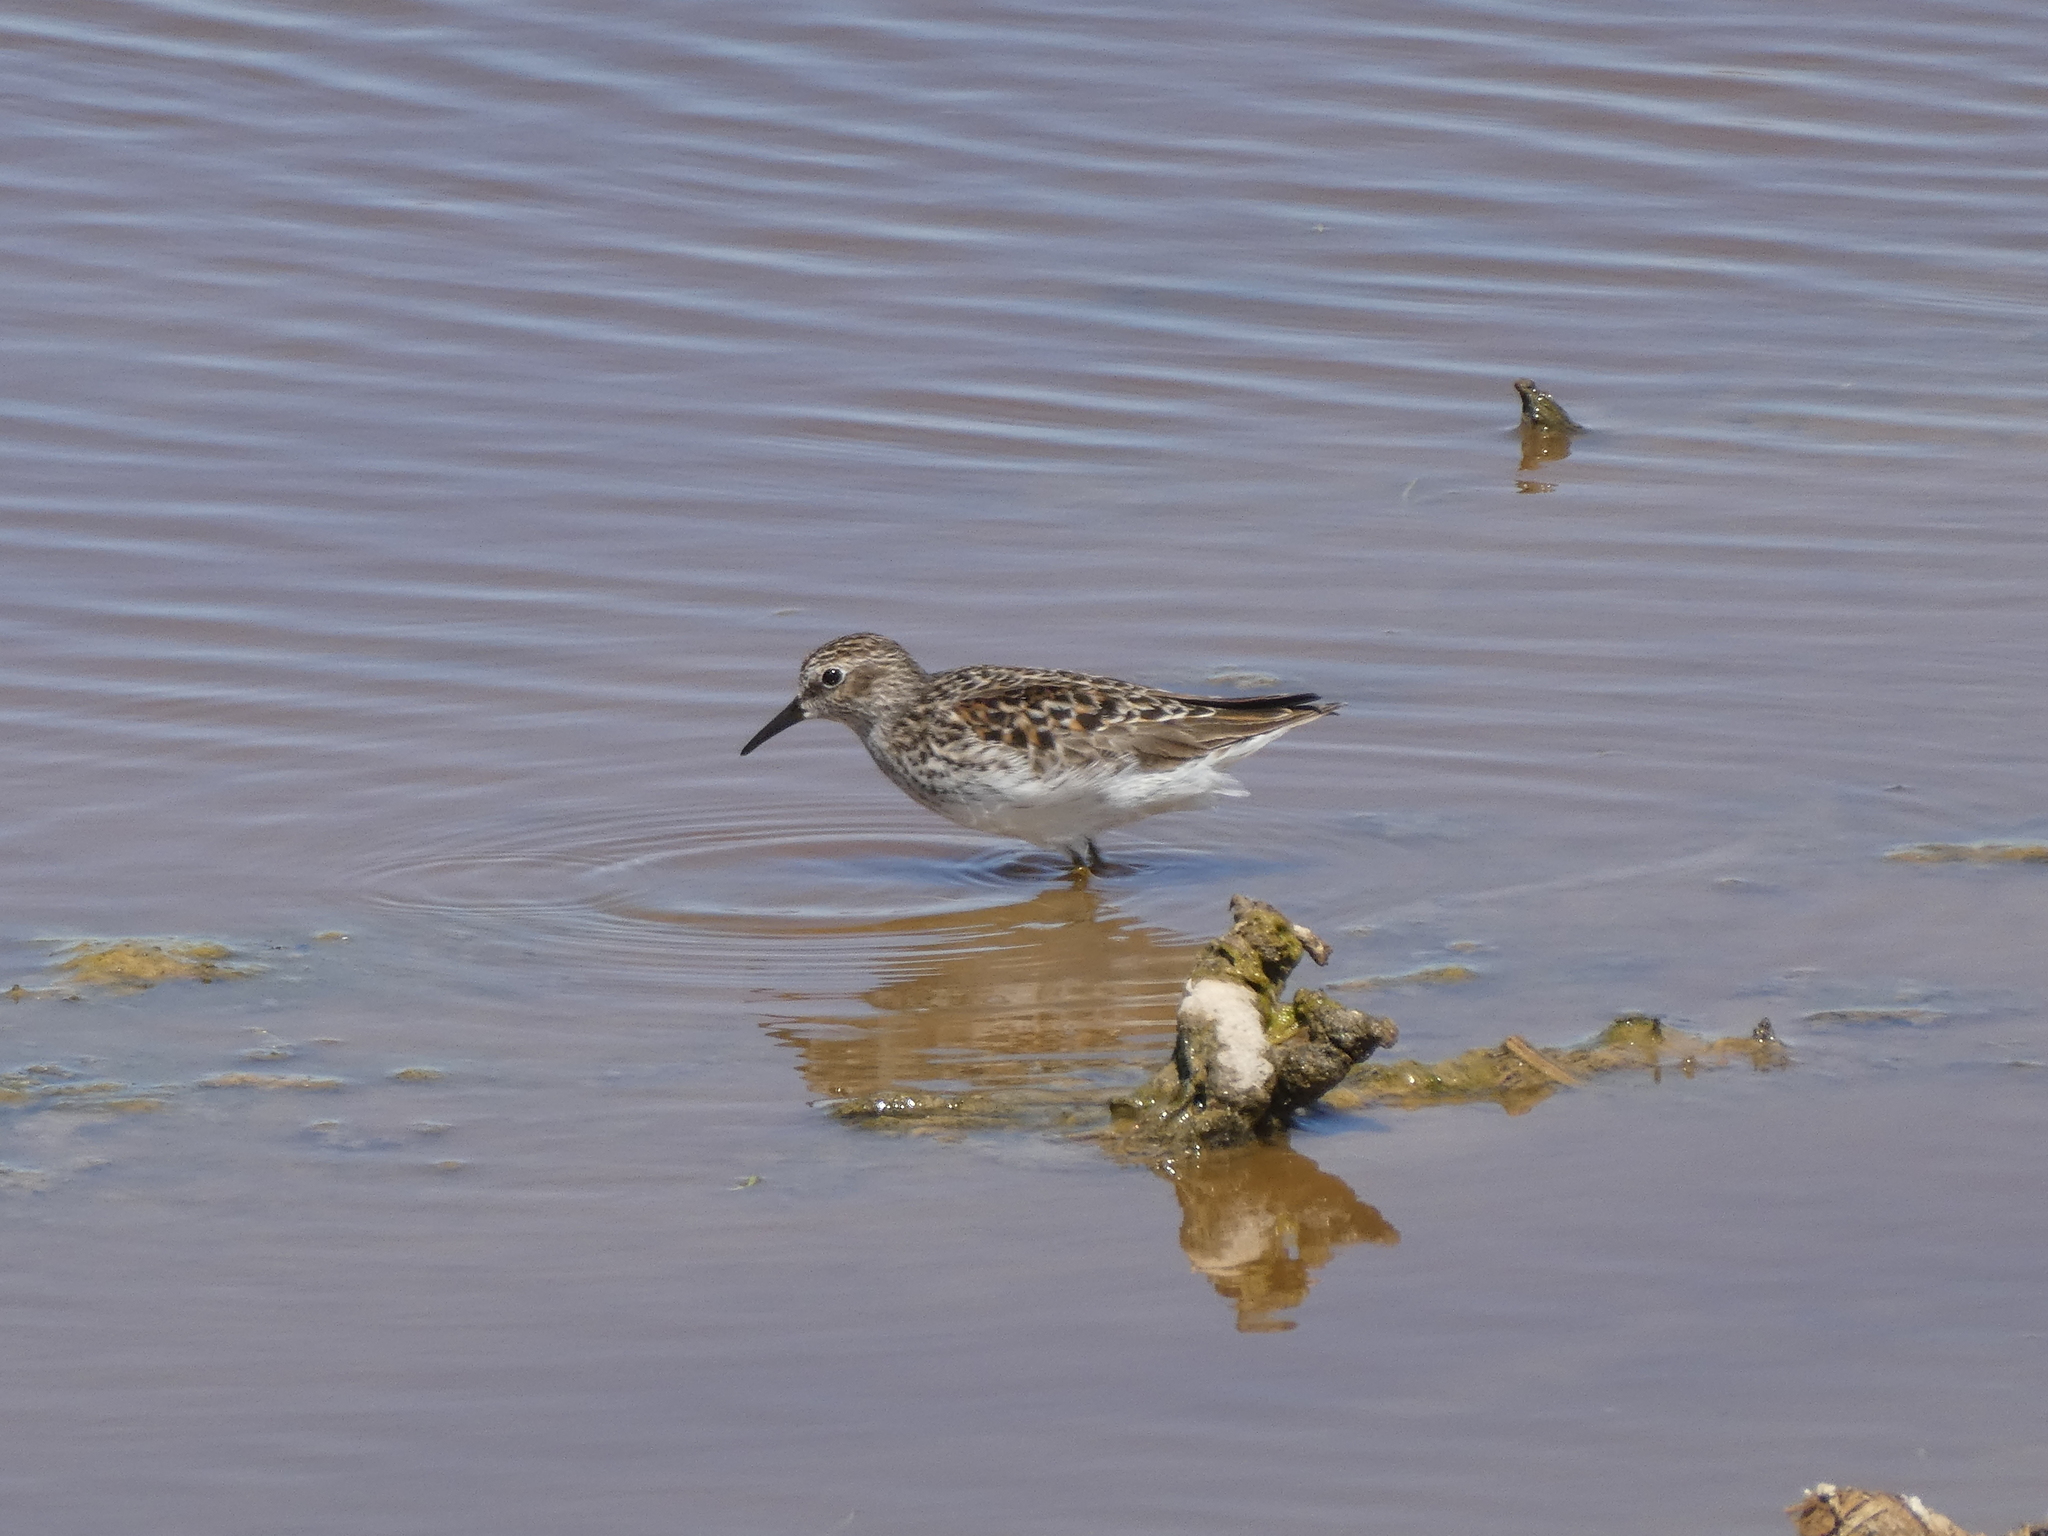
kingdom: Animalia
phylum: Chordata
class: Aves
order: Charadriiformes
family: Scolopacidae
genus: Calidris
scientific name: Calidris minutilla
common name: Least sandpiper
